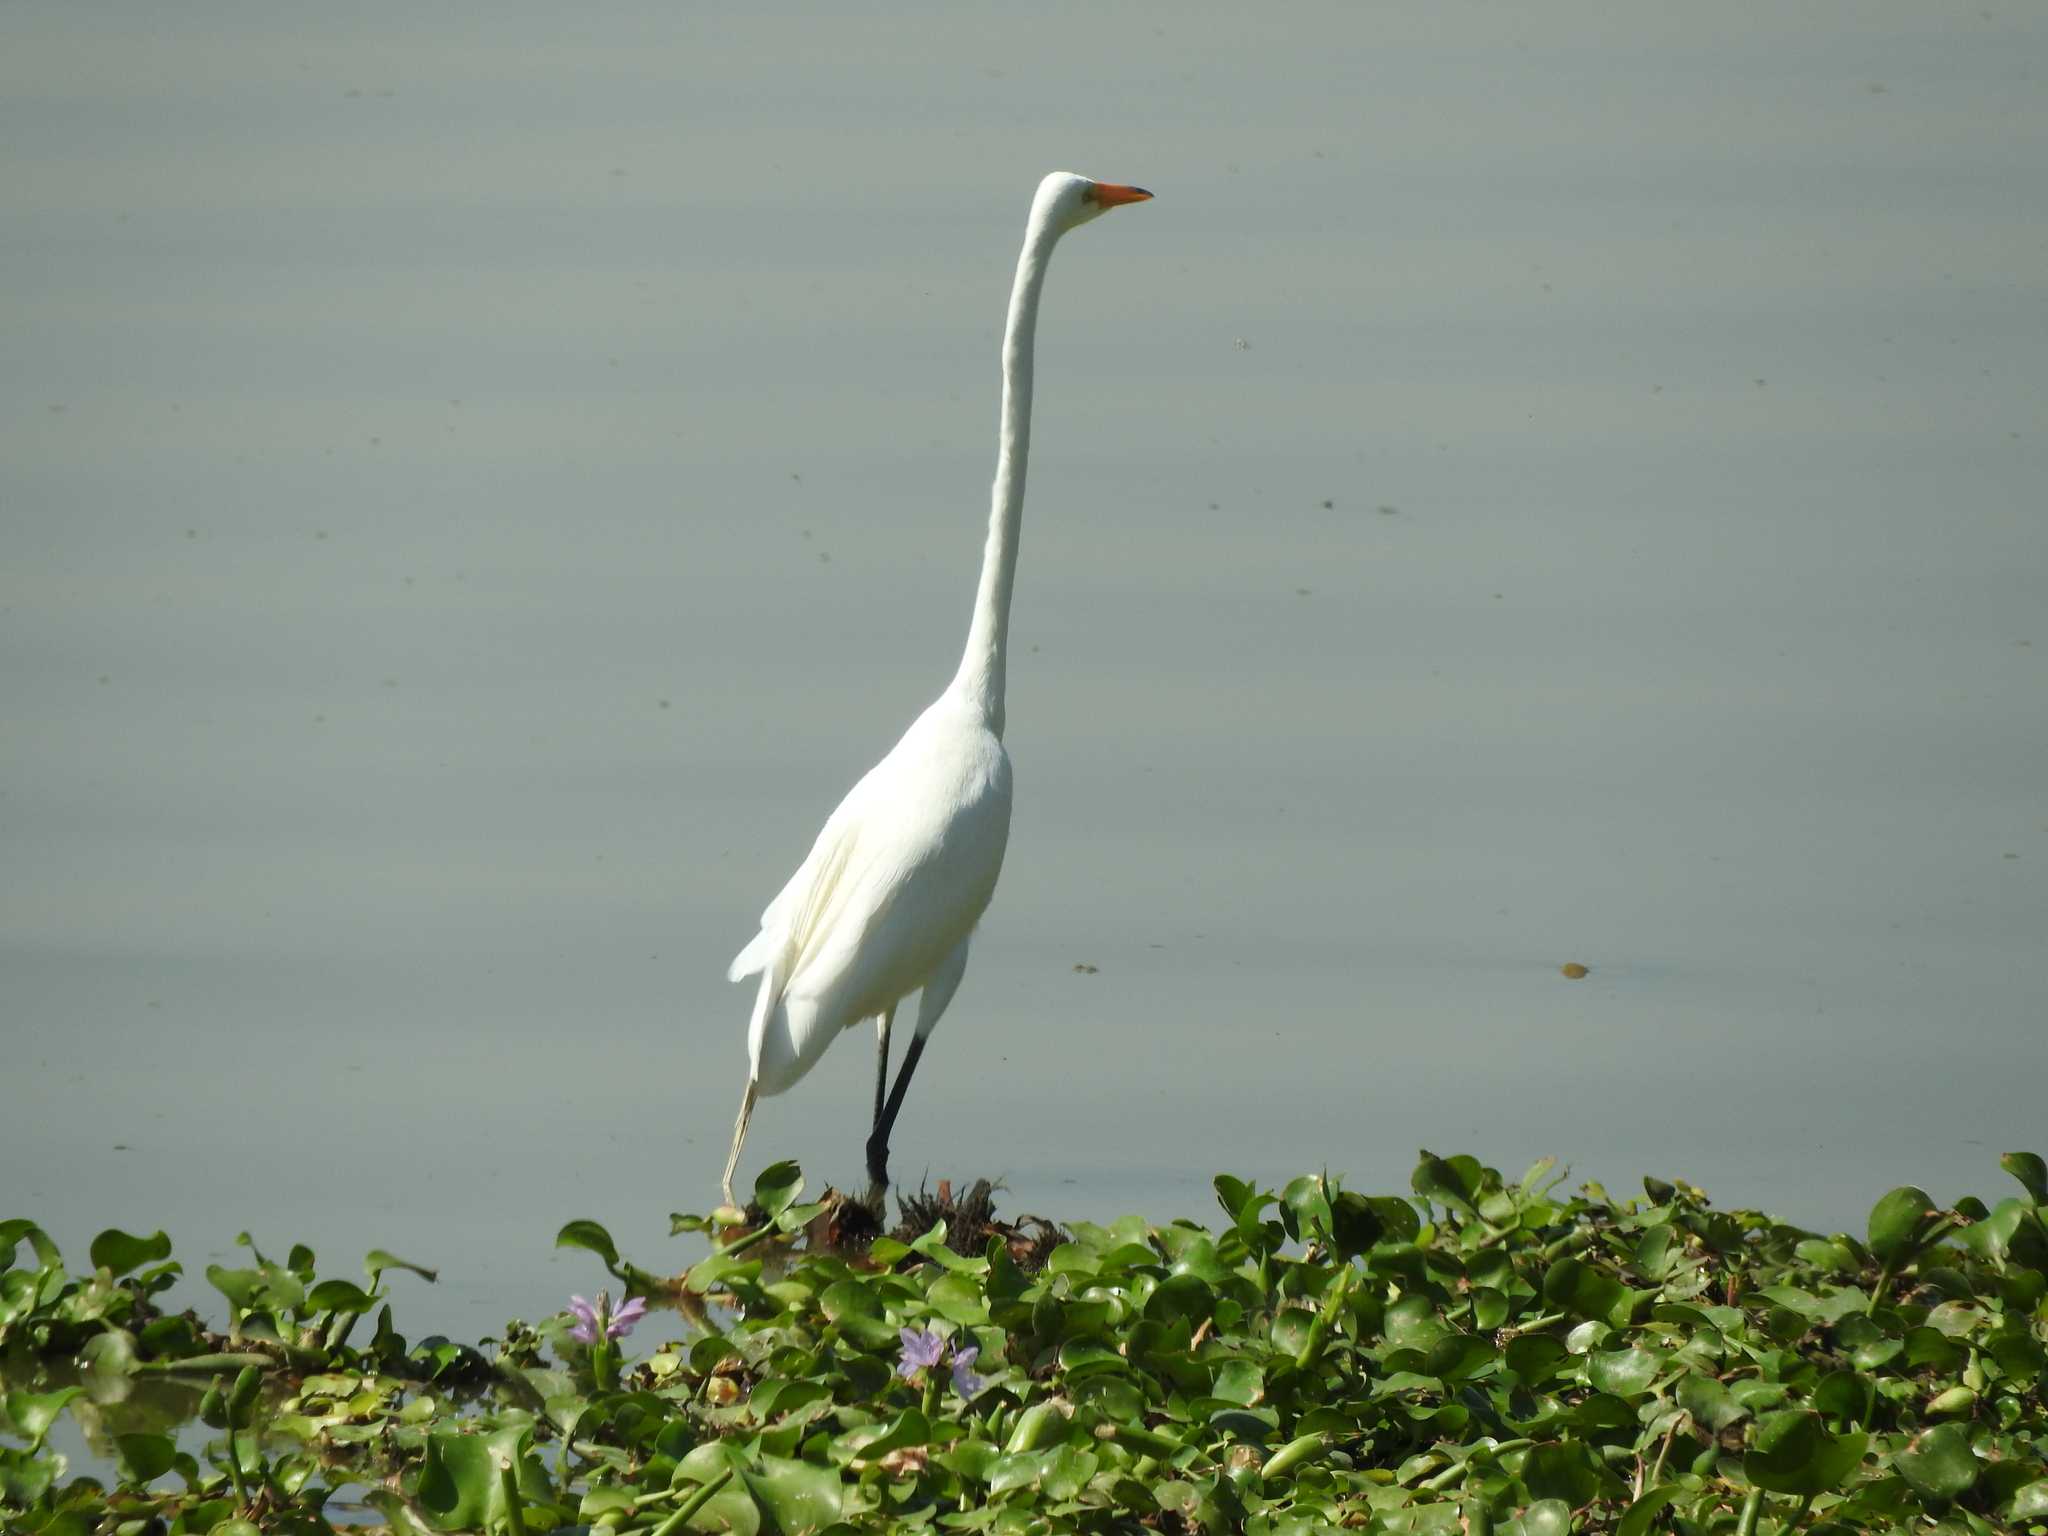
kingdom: Animalia
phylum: Chordata
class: Aves
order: Pelecaniformes
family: Ardeidae
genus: Ardea
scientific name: Ardea alba
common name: Great egret
